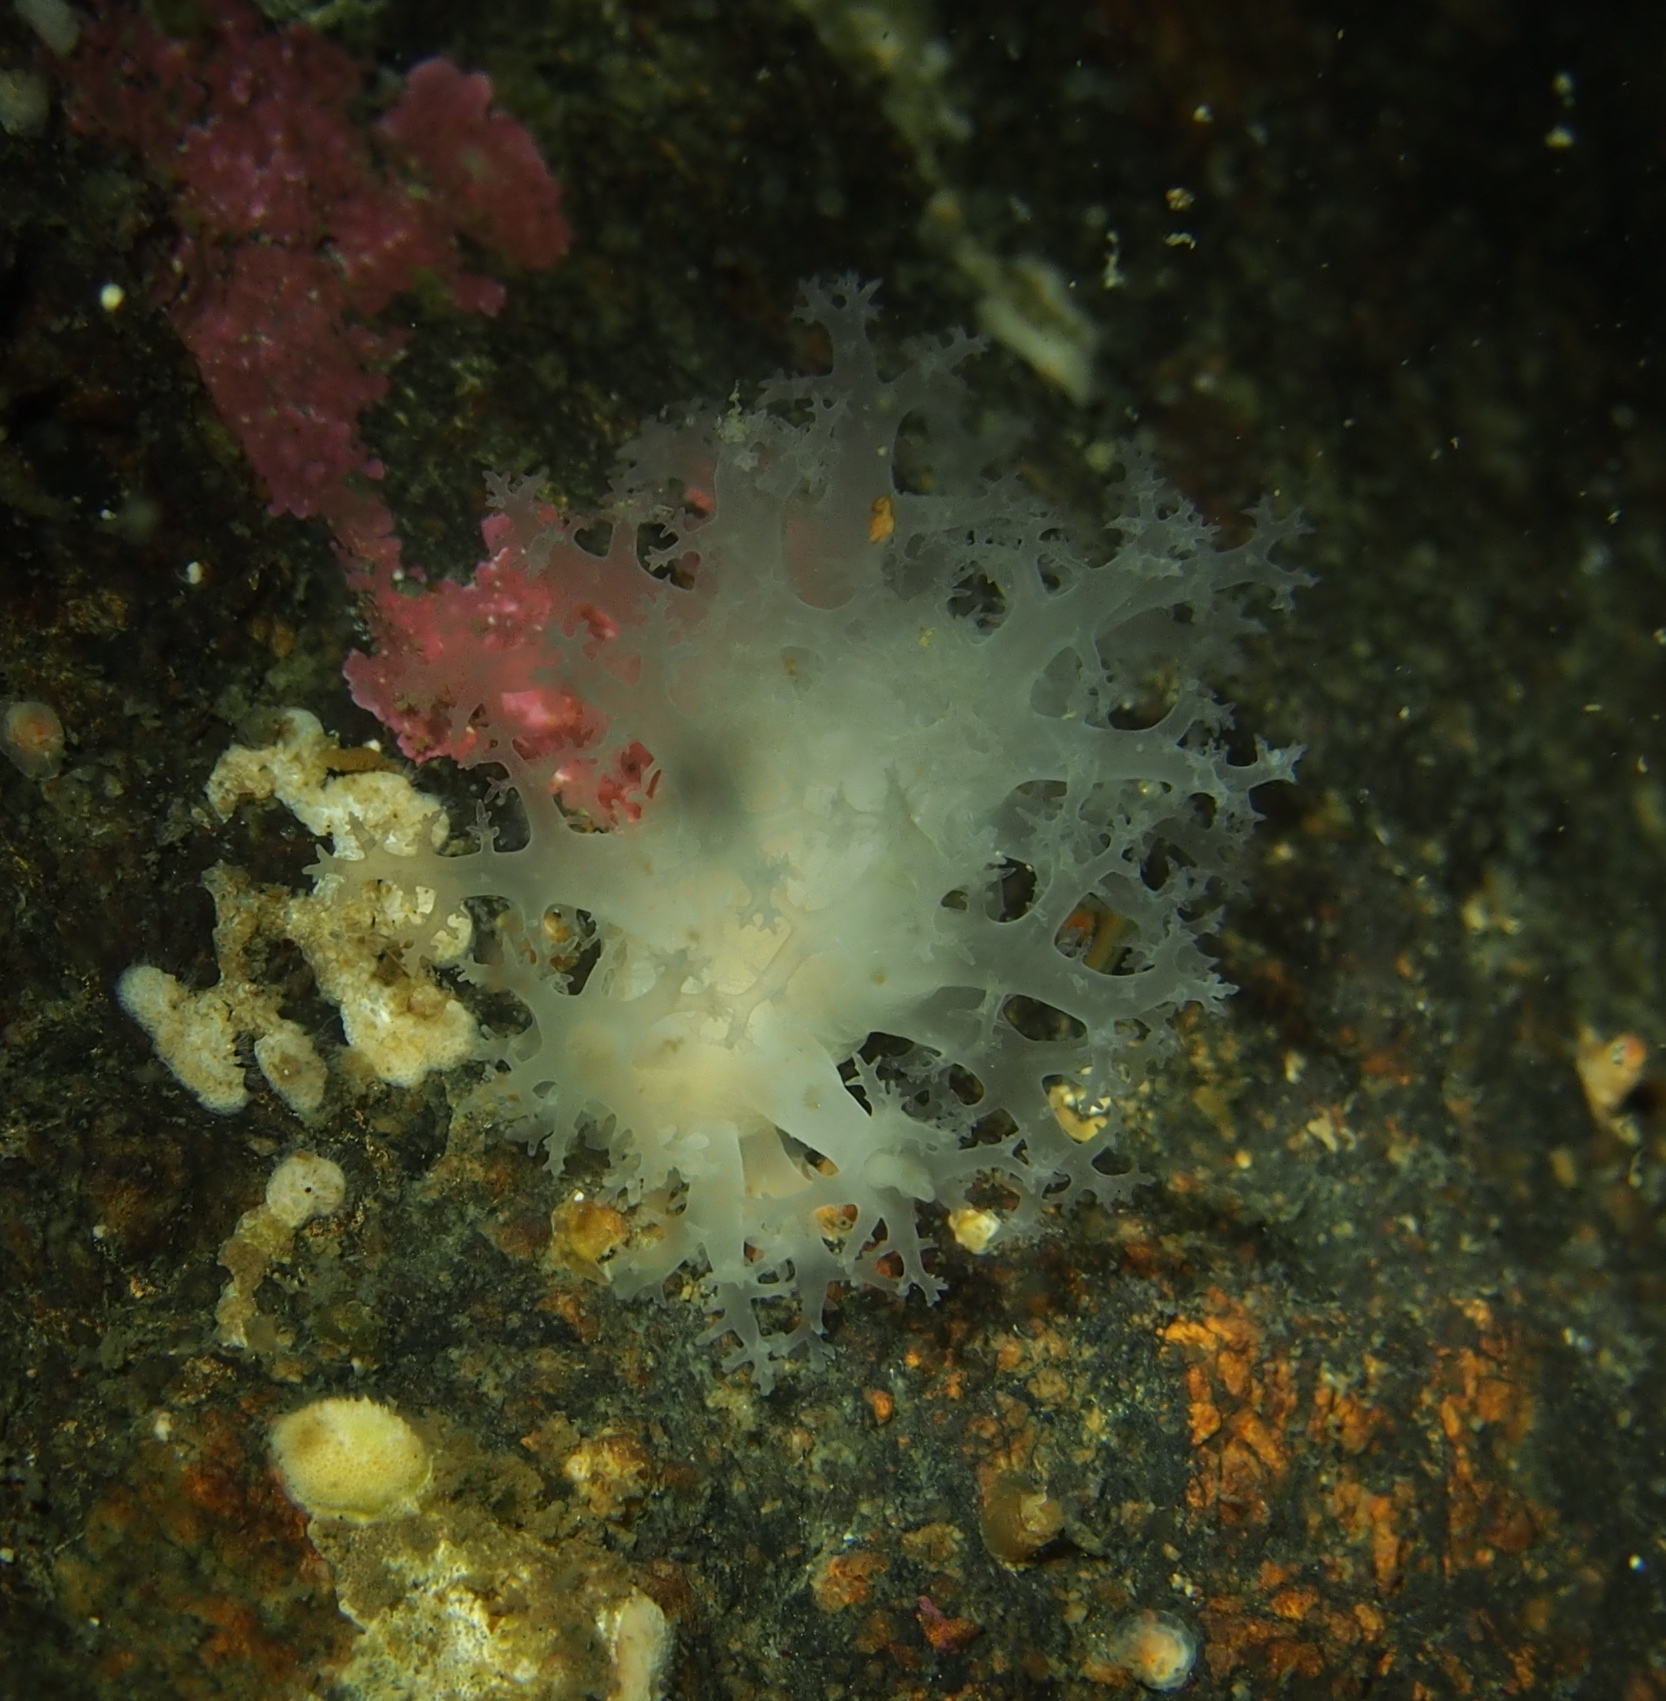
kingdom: Animalia
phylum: Mollusca
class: Gastropoda
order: Nudibranchia
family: Dendronotidae
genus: Dendronotus
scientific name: Dendronotus lacteus
